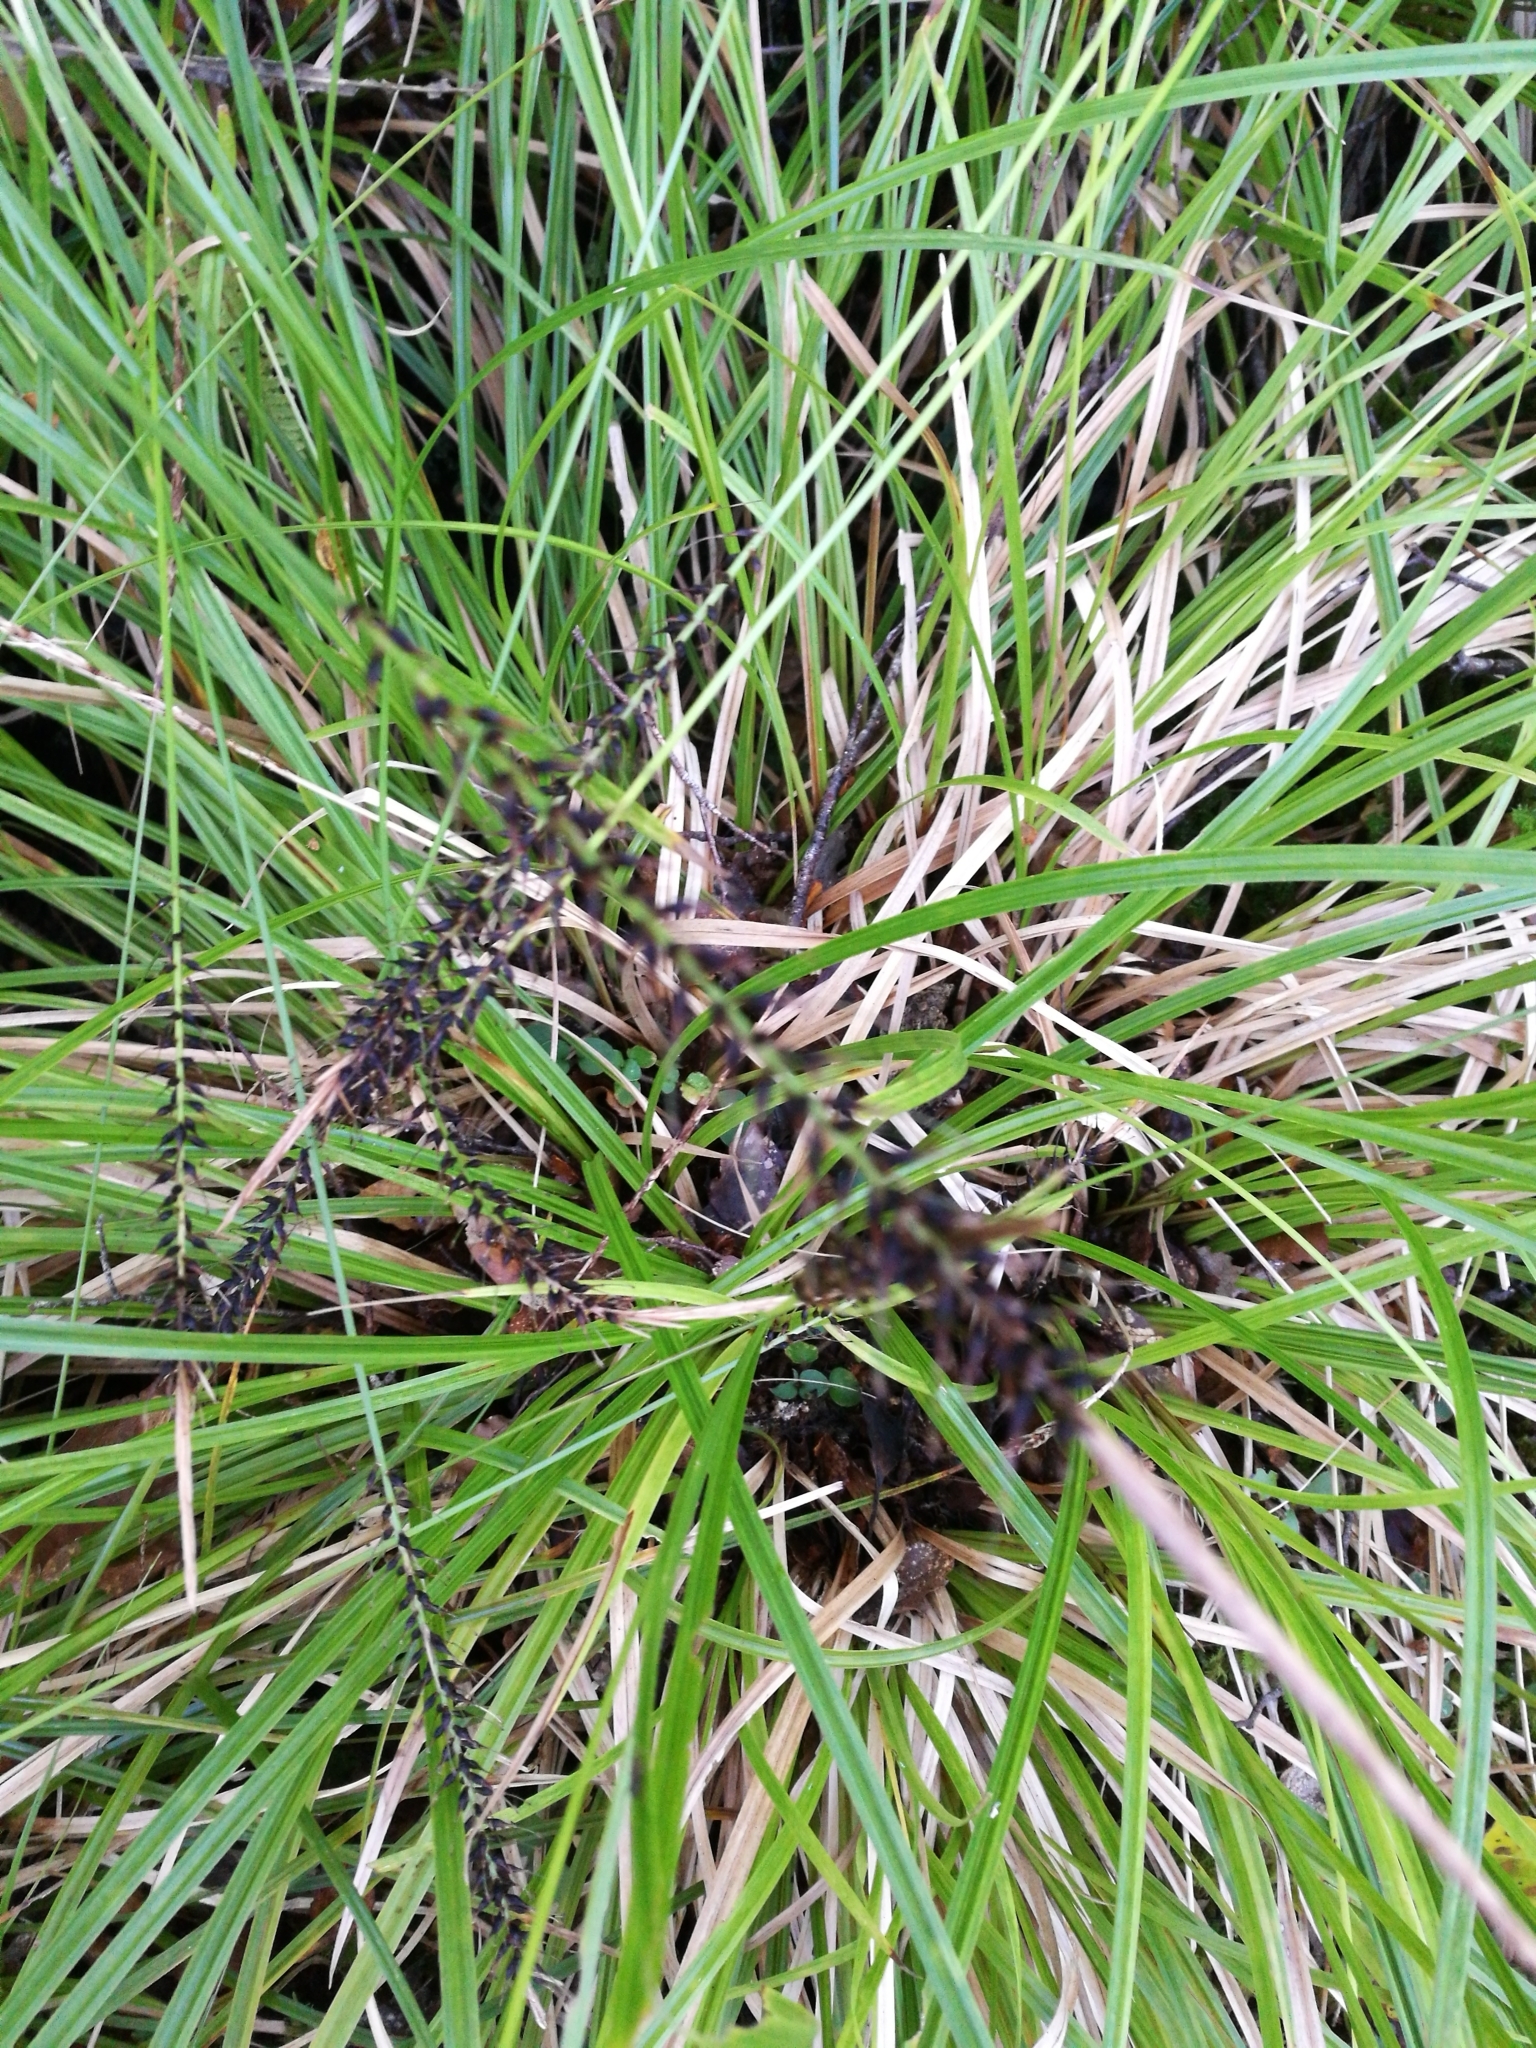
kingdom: Plantae
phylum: Tracheophyta
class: Liliopsida
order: Poales
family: Cyperaceae
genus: Carex
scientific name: Carex uncinata
